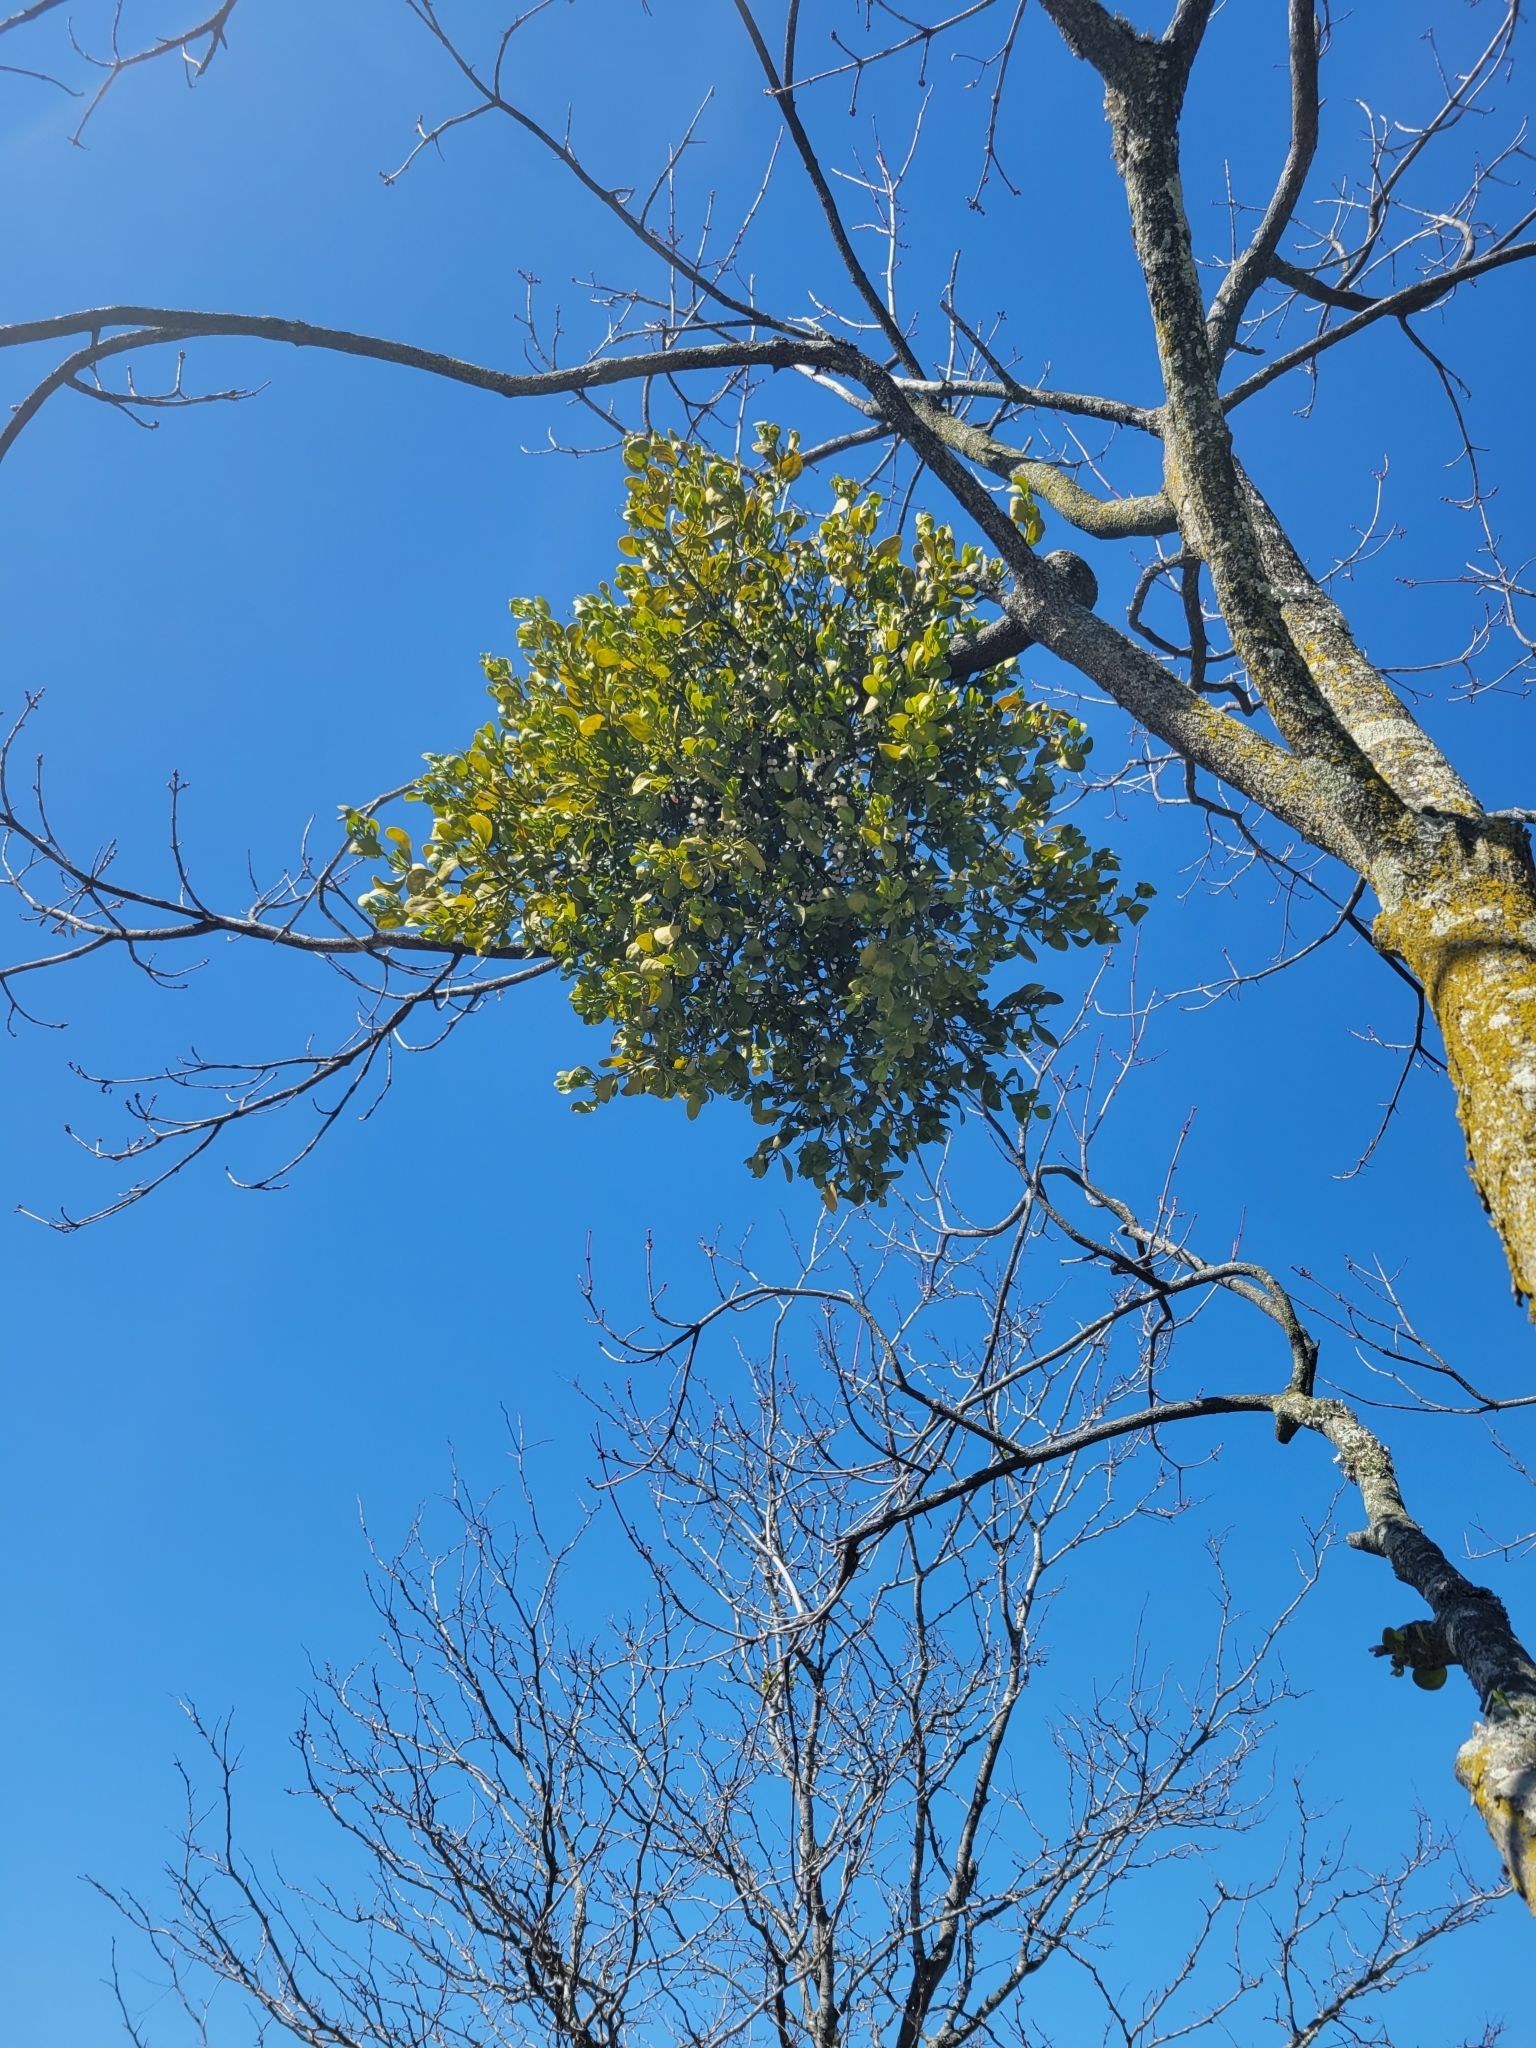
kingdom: Plantae
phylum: Tracheophyta
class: Magnoliopsida
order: Santalales
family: Viscaceae
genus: Phoradendron
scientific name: Phoradendron leucarpum
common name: Pacific mistletoe
